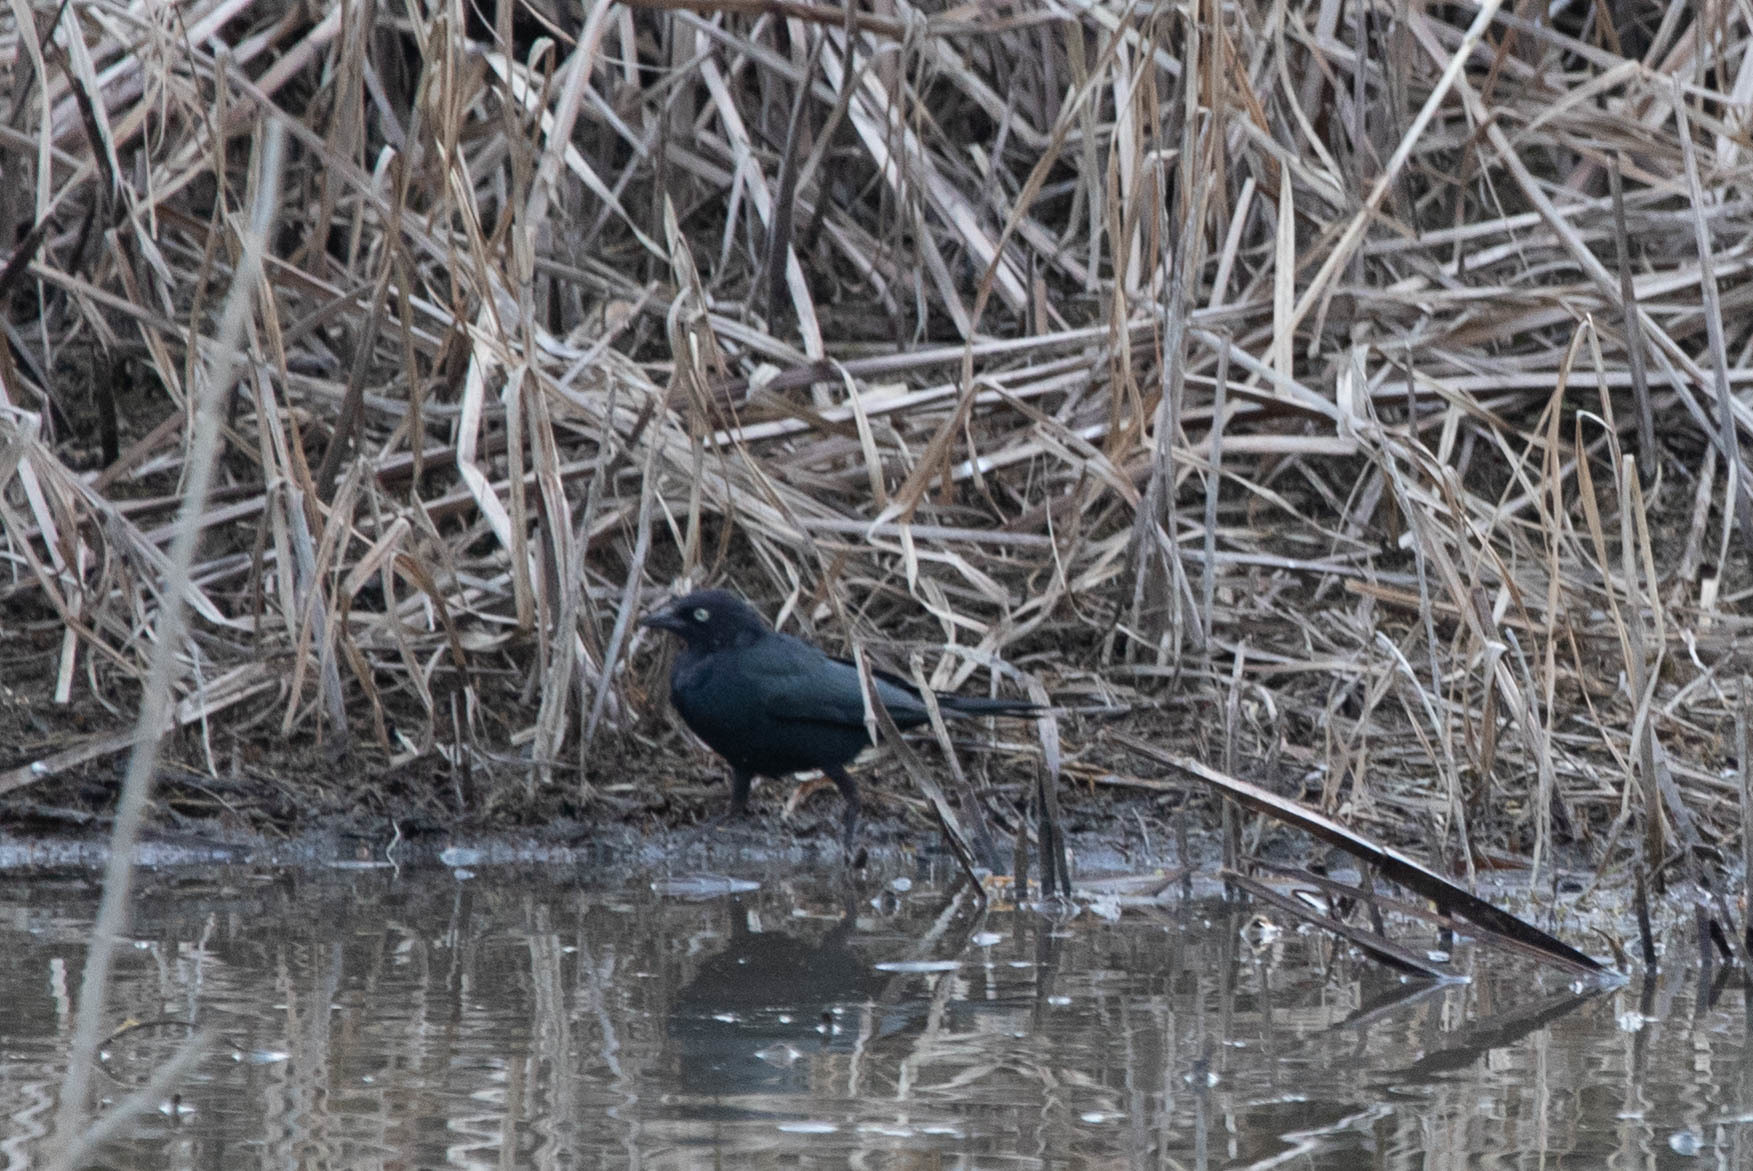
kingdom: Animalia
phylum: Chordata
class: Aves
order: Passeriformes
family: Icteridae
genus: Euphagus
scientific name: Euphagus cyanocephalus
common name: Brewer's blackbird
